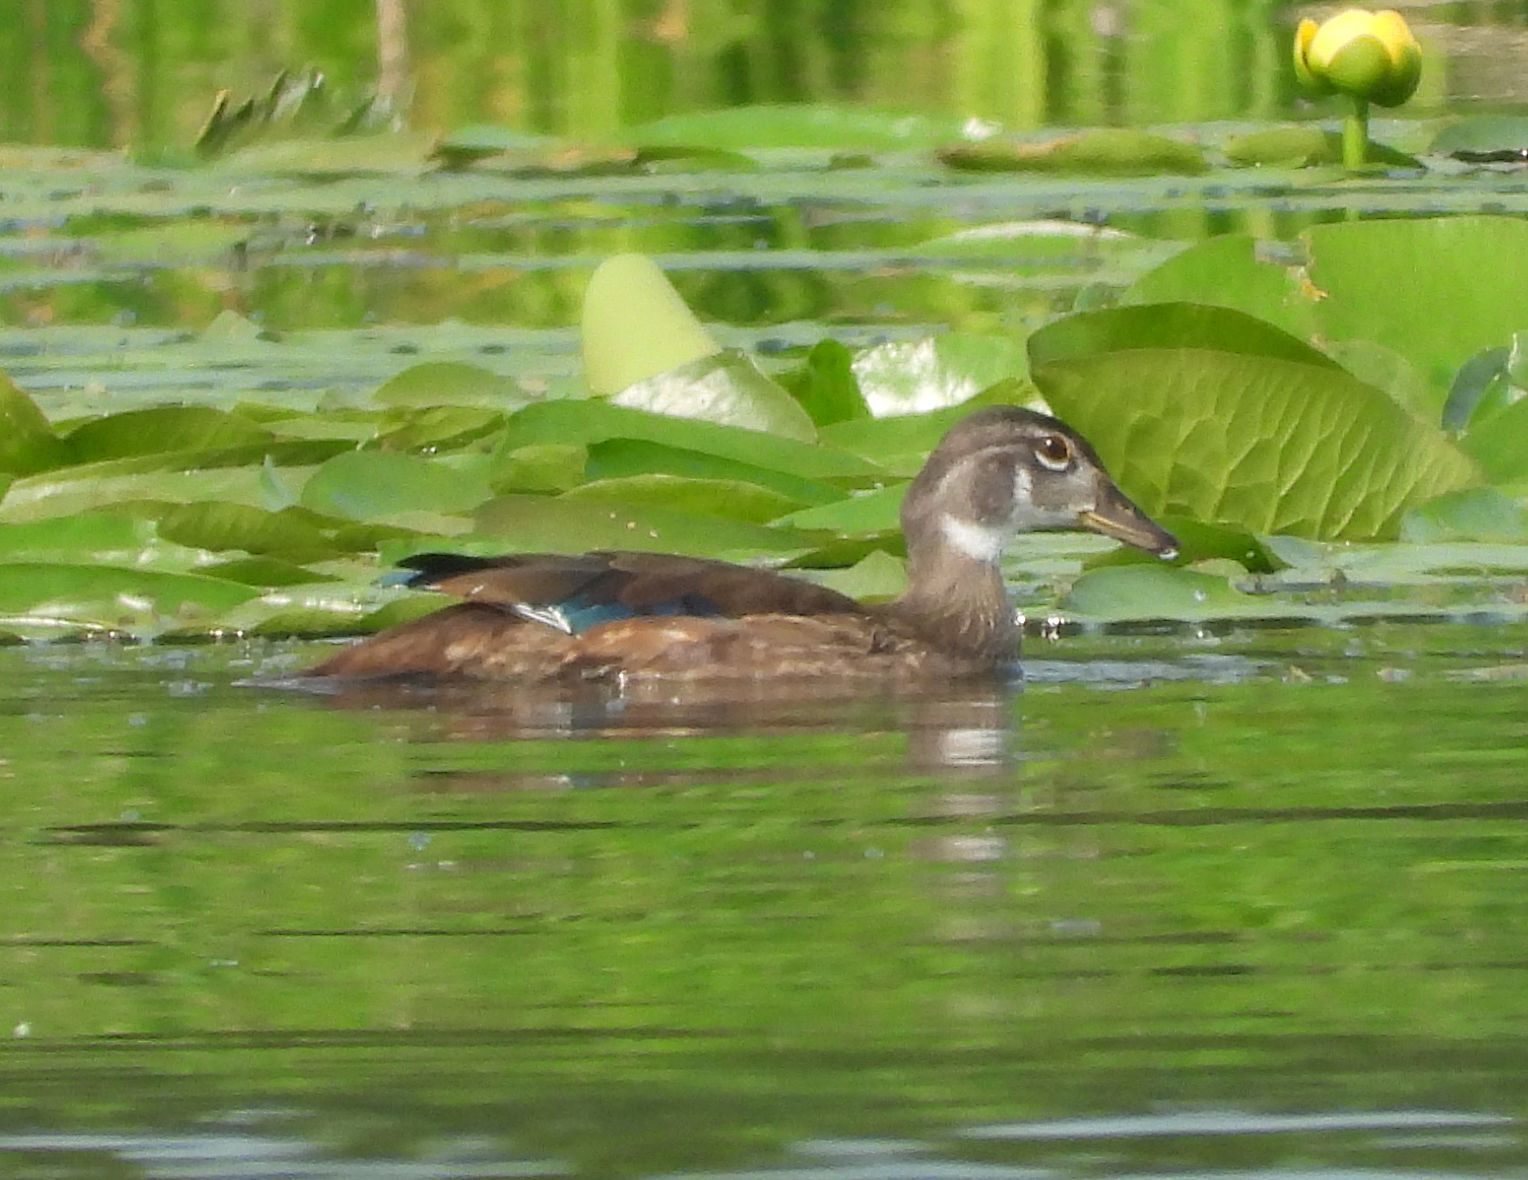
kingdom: Animalia
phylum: Chordata
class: Aves
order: Anseriformes
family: Anatidae
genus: Aix
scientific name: Aix sponsa
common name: Wood duck
